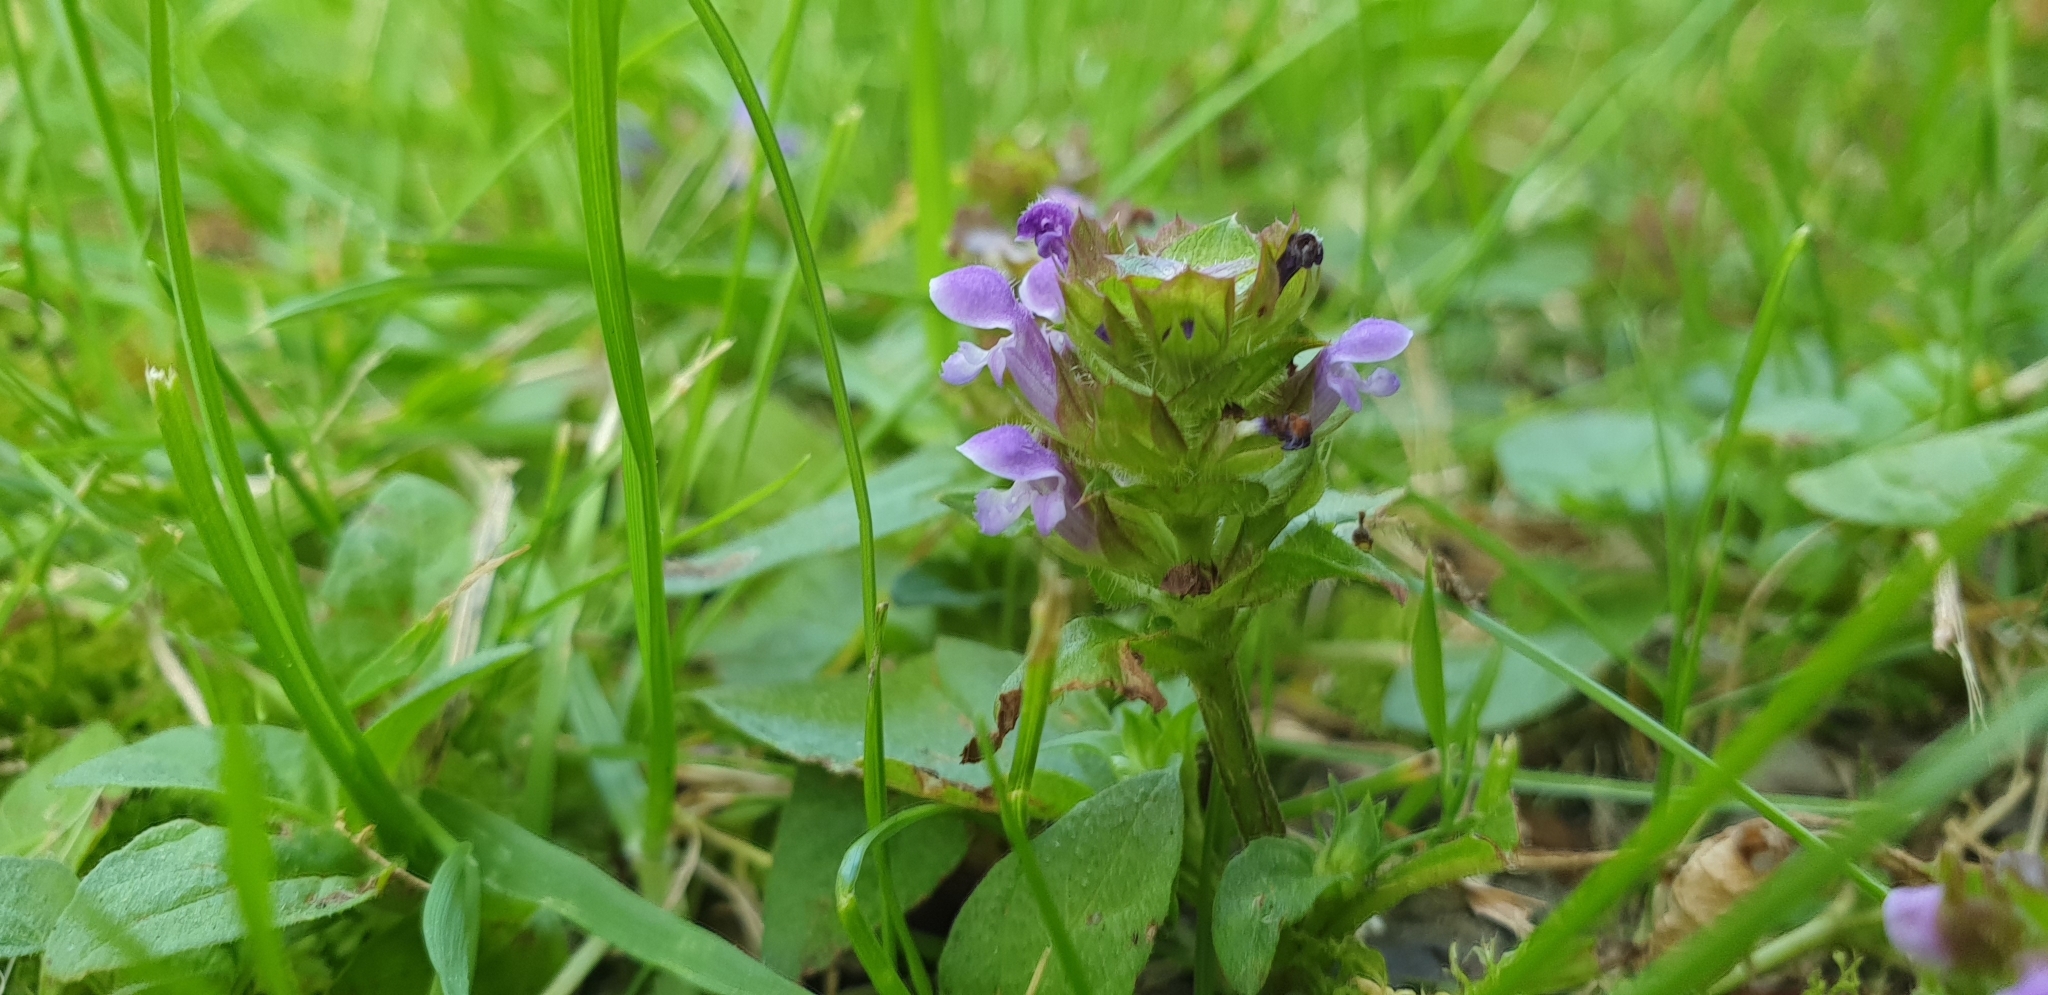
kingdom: Plantae
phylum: Tracheophyta
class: Magnoliopsida
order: Lamiales
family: Lamiaceae
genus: Prunella
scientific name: Prunella vulgaris
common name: Heal-all
